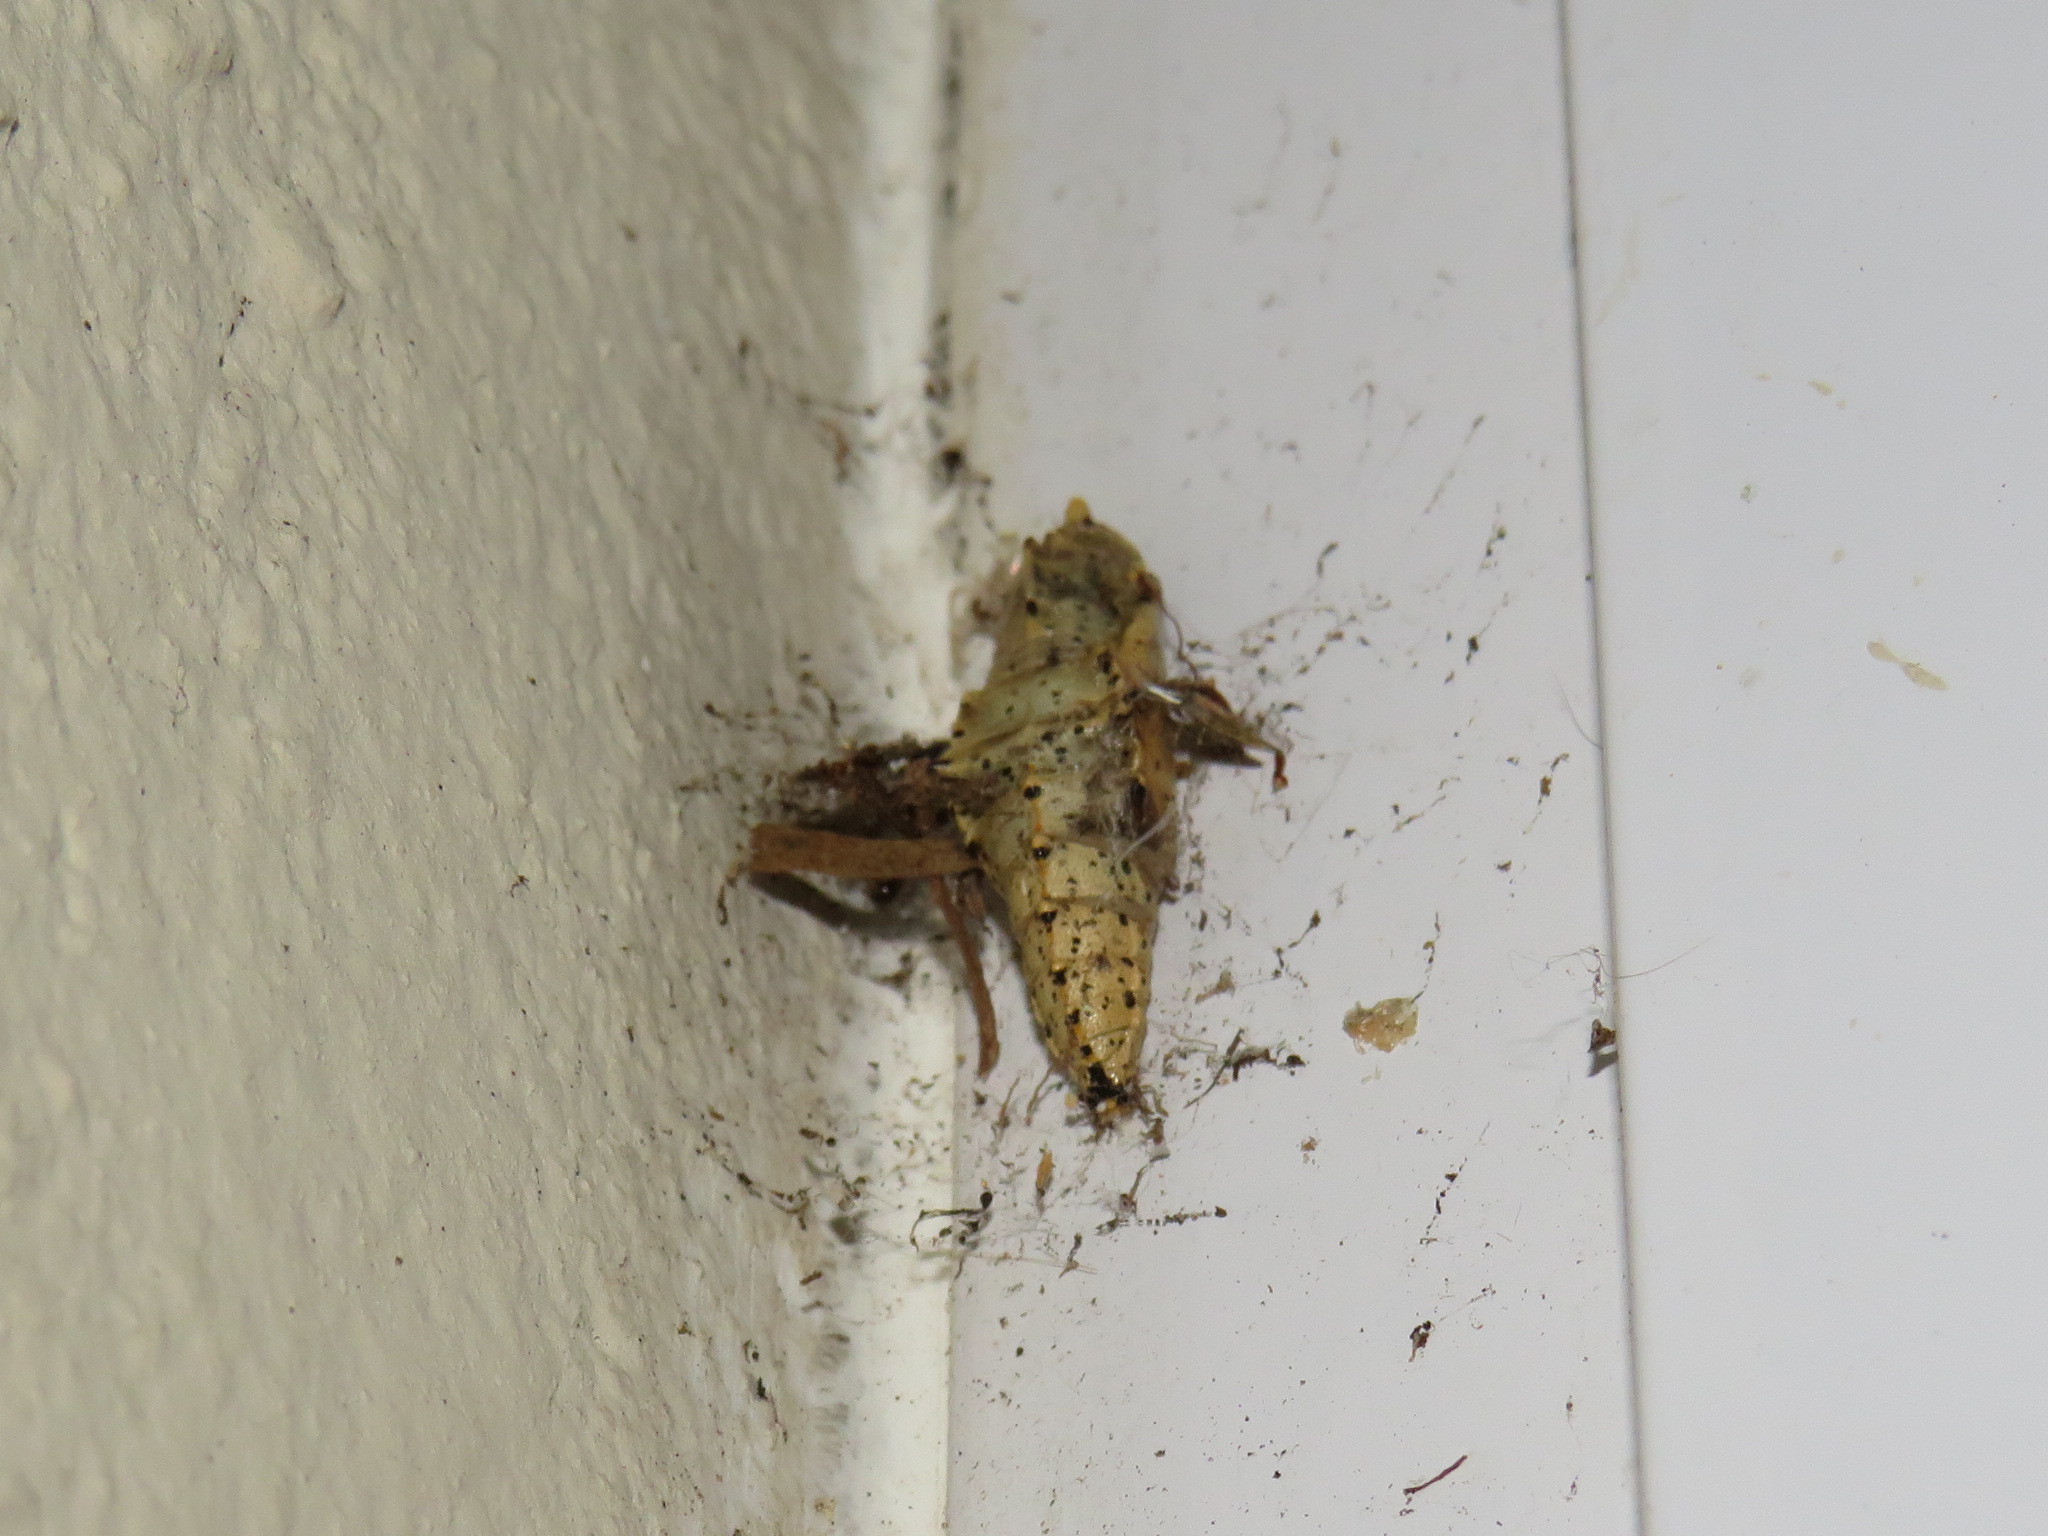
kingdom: Animalia
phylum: Arthropoda
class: Insecta
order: Lepidoptera
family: Pieridae
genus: Pieris
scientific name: Pieris brassicae
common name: Large white
